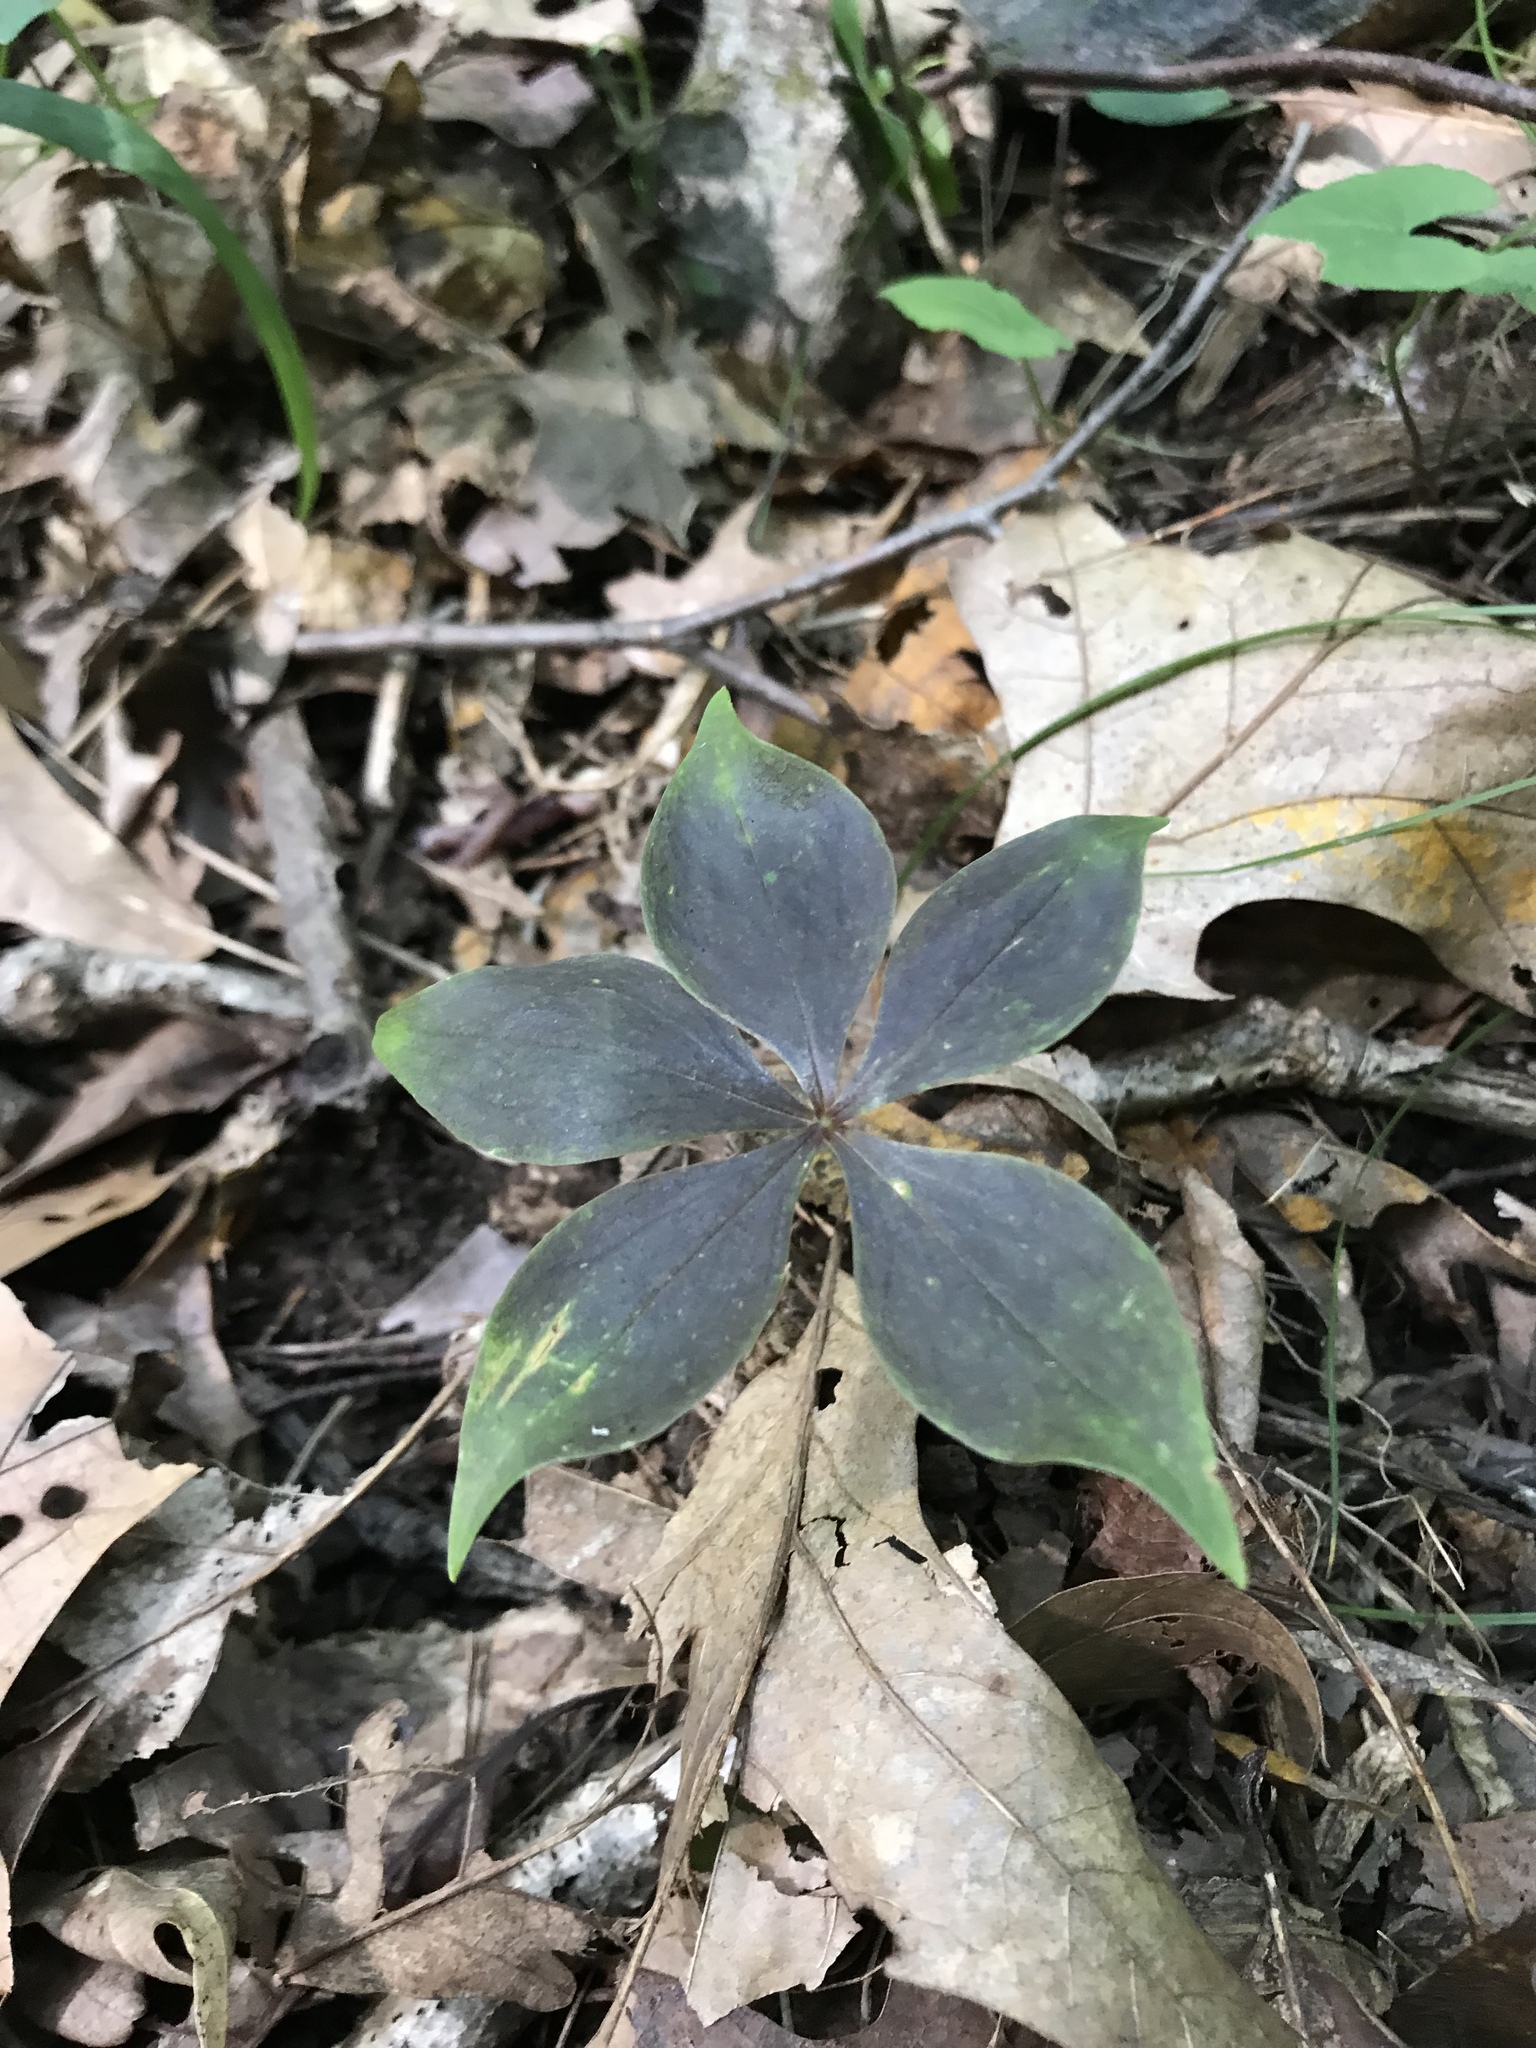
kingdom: Plantae
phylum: Tracheophyta
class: Liliopsida
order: Liliales
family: Liliaceae
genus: Medeola
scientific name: Medeola virginiana
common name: Indian cucumber-root
